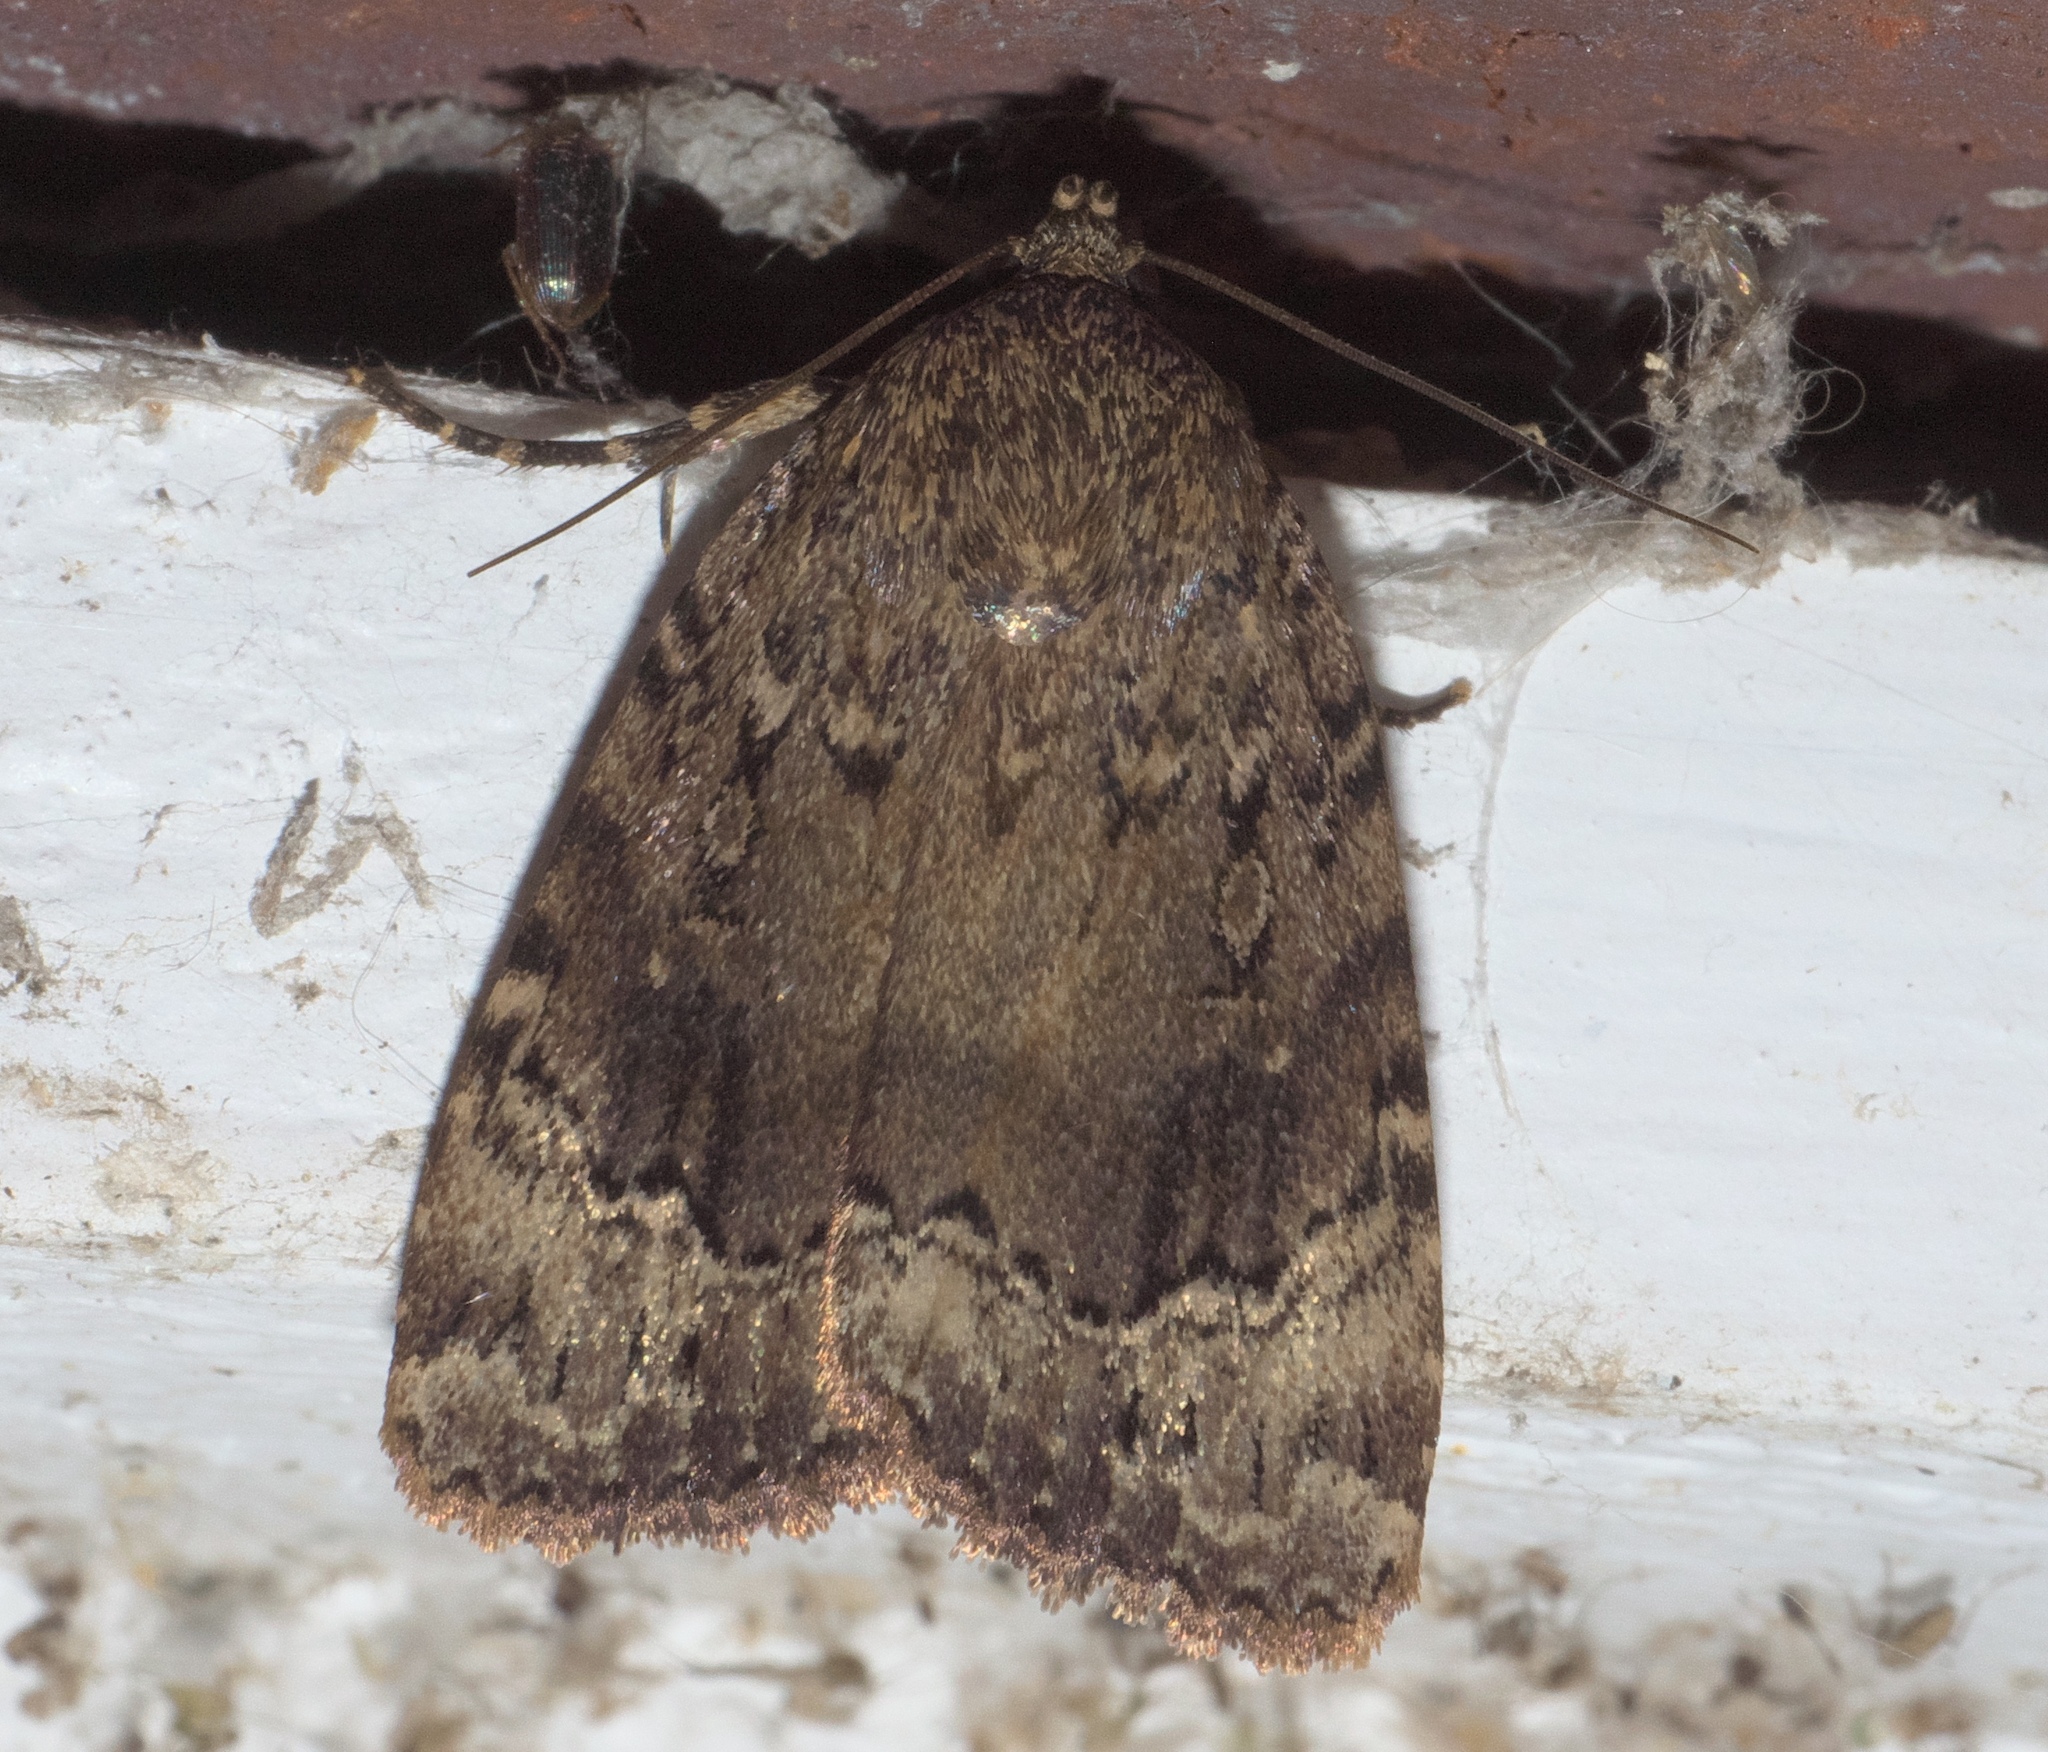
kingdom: Animalia
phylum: Arthropoda
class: Insecta
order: Lepidoptera
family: Noctuidae
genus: Amphipyra
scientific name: Amphipyra pyramidoides
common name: American copper underwing
